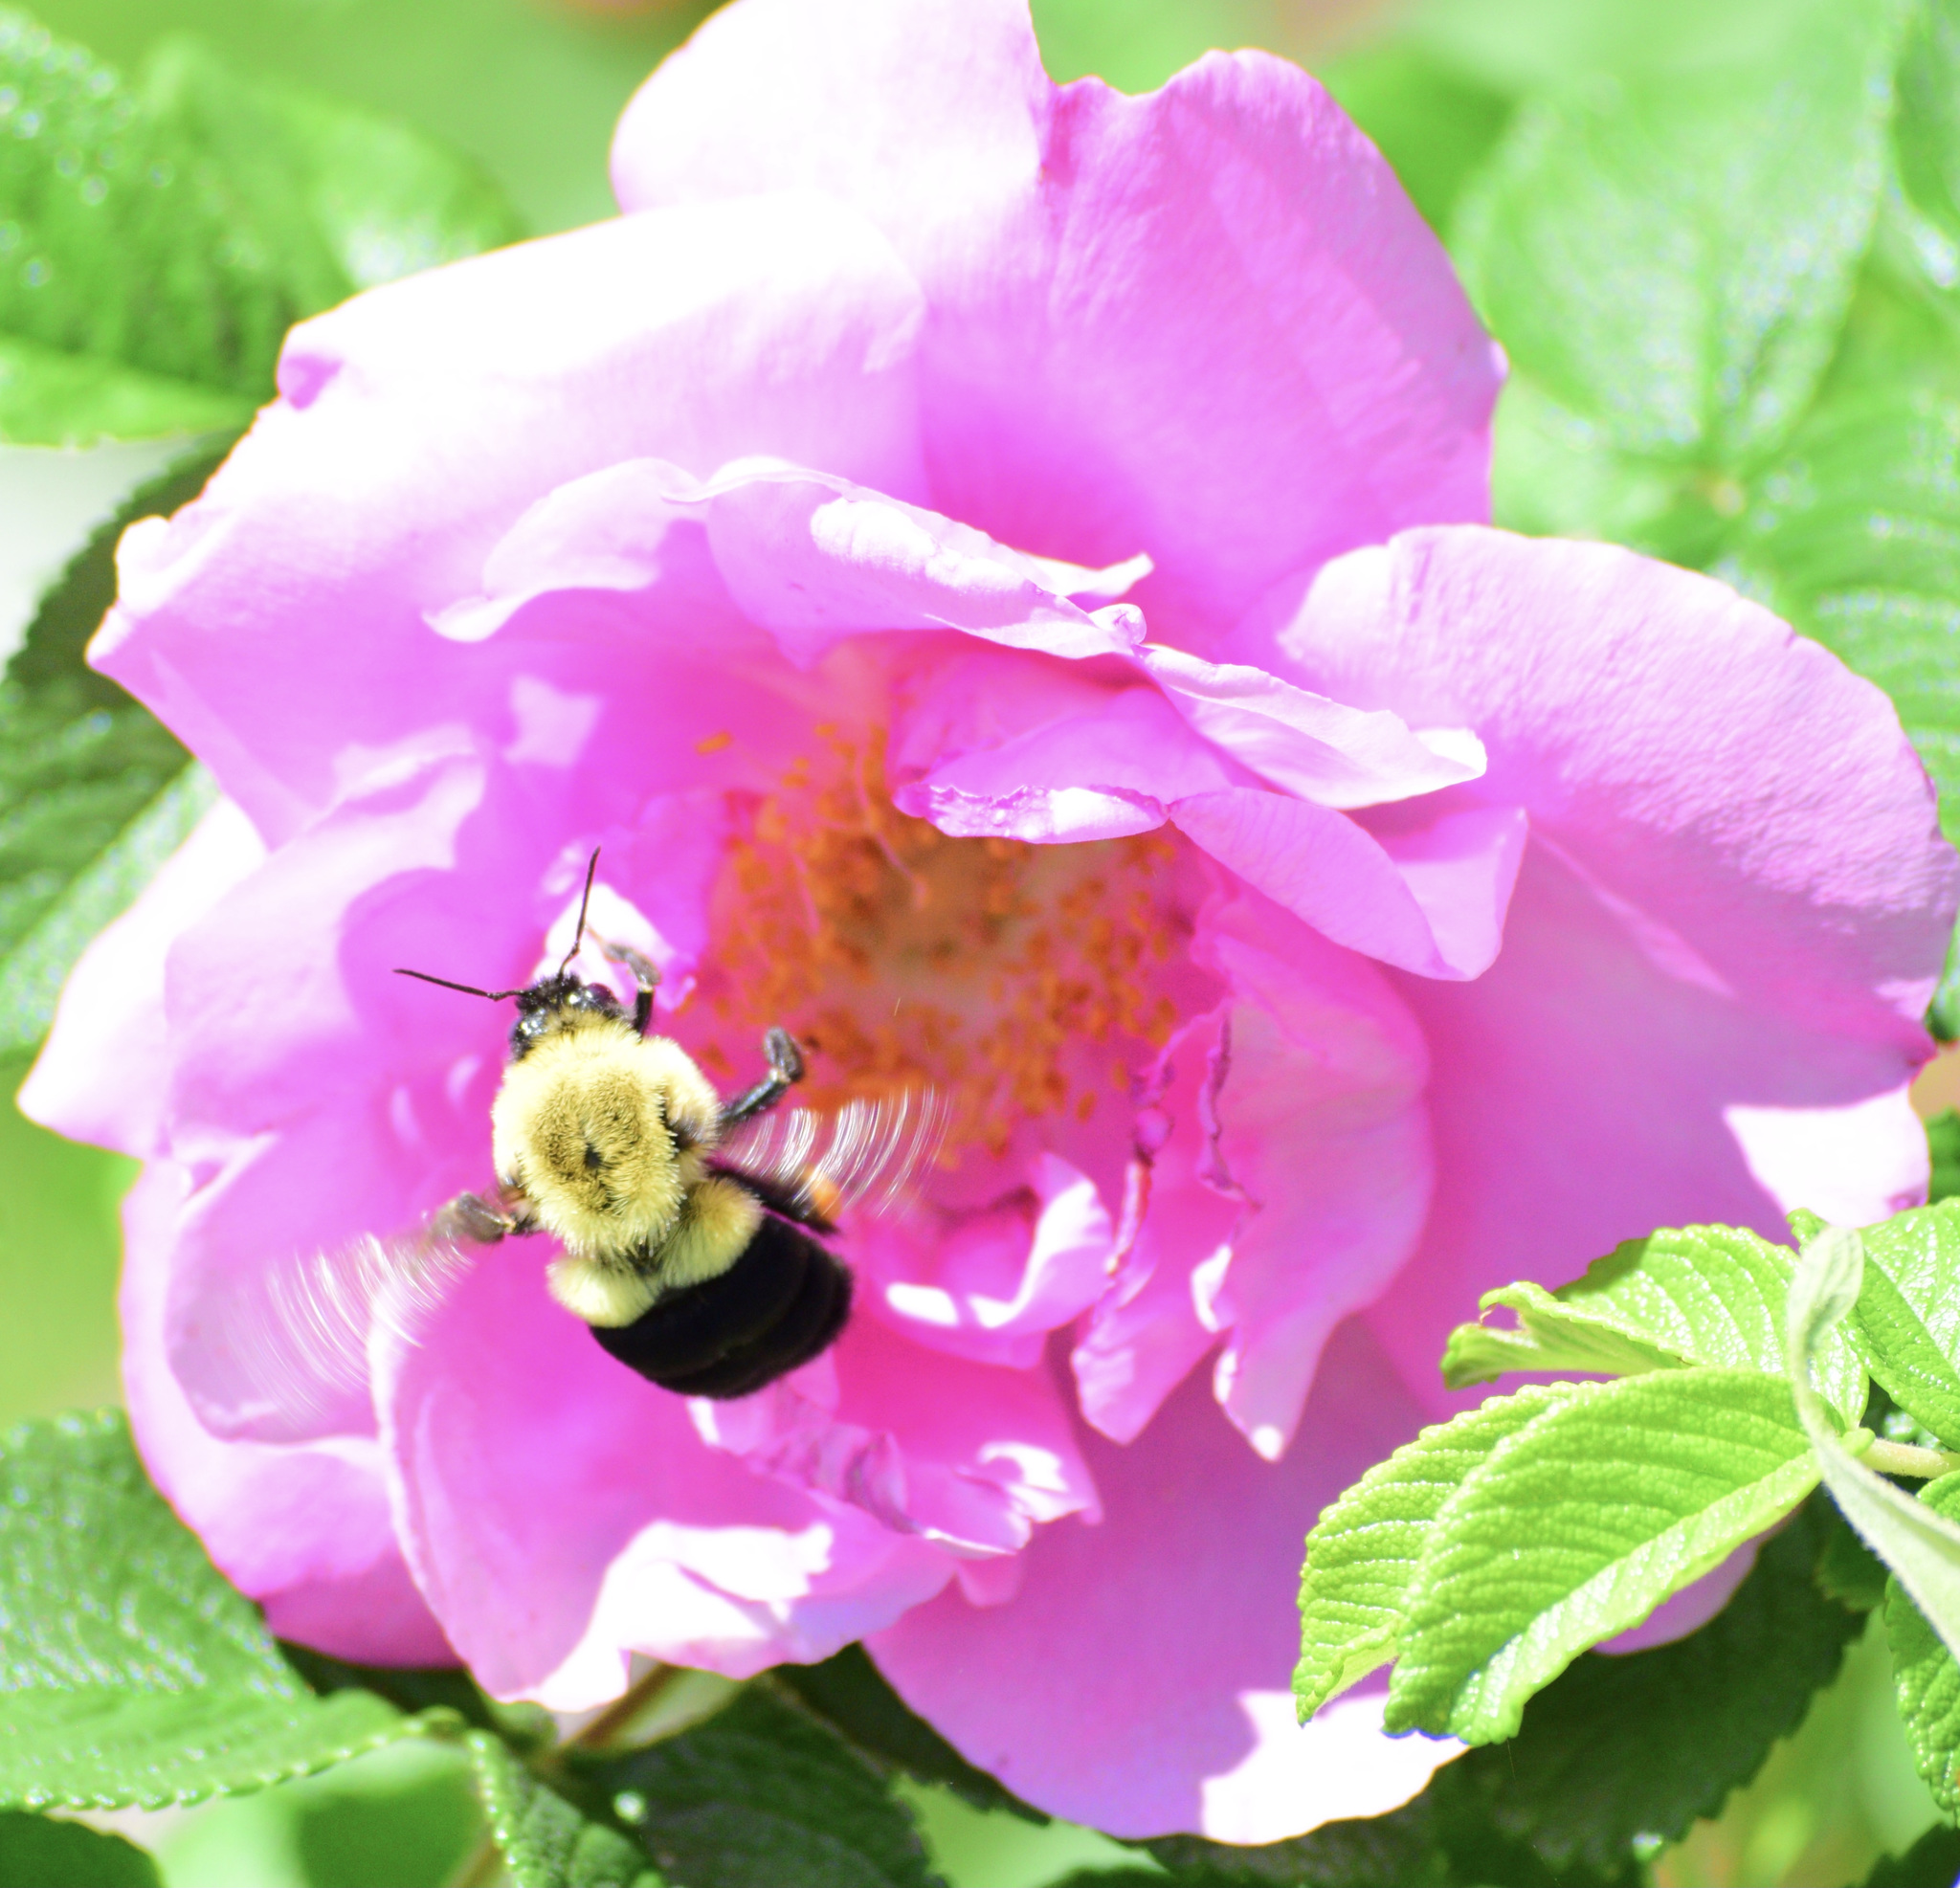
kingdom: Animalia
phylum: Arthropoda
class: Insecta
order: Hymenoptera
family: Apidae
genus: Bombus
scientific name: Bombus impatiens
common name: Common eastern bumble bee
